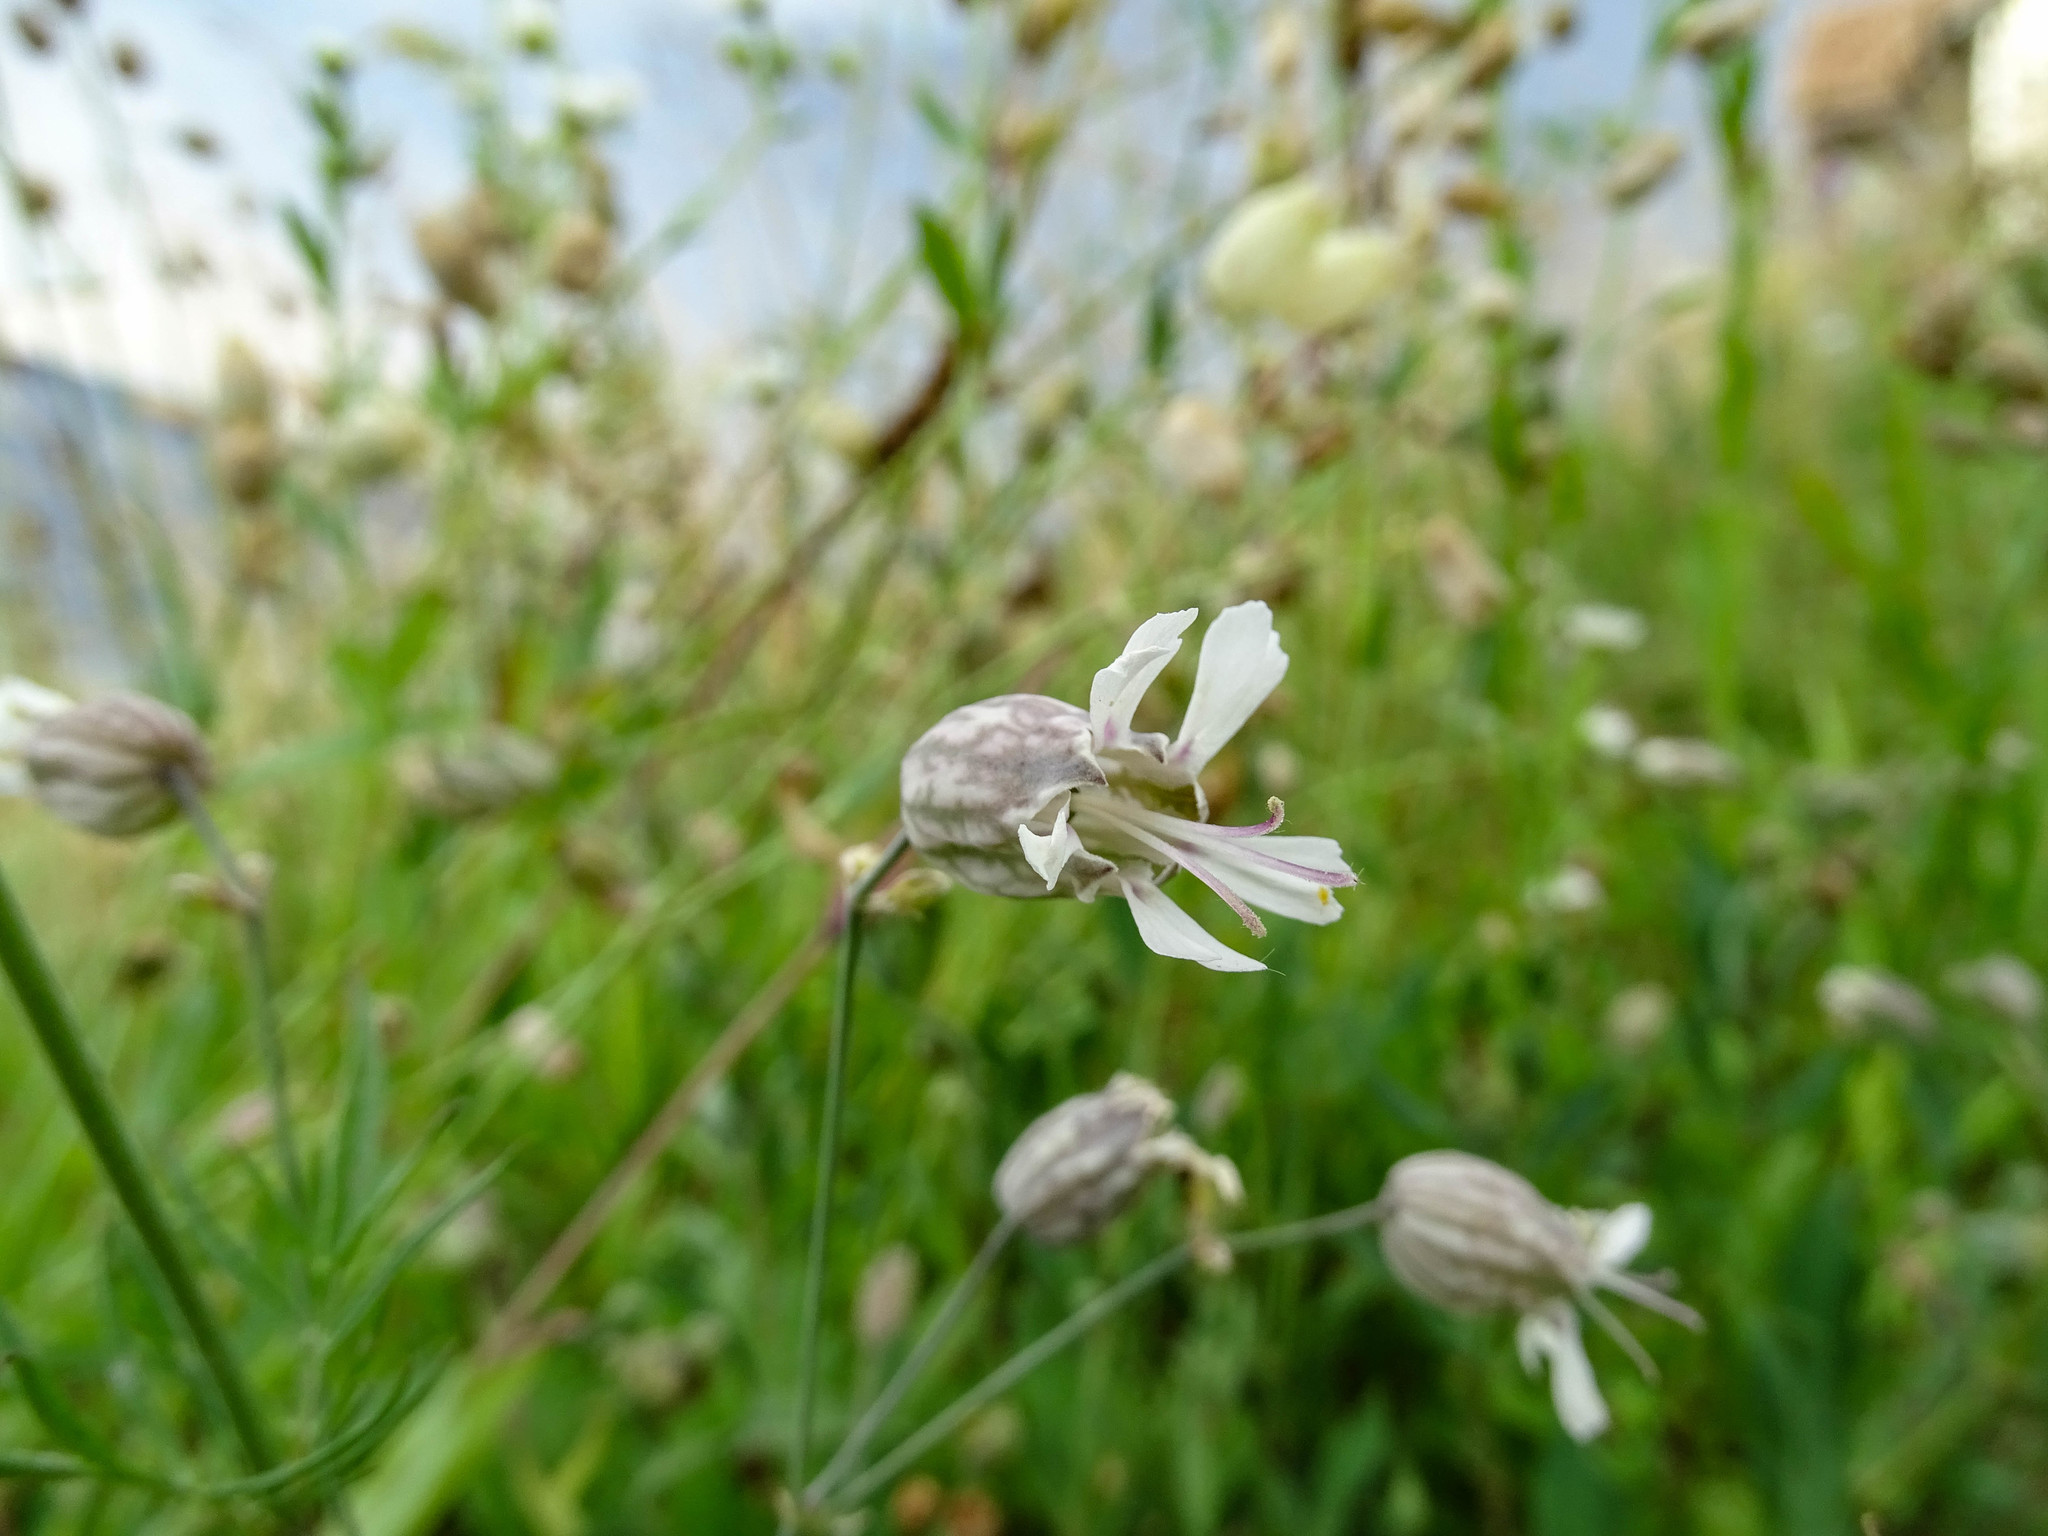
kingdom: Plantae
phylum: Tracheophyta
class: Magnoliopsida
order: Caryophyllales
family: Caryophyllaceae
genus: Silene
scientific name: Silene vulgaris
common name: Bladder campion
